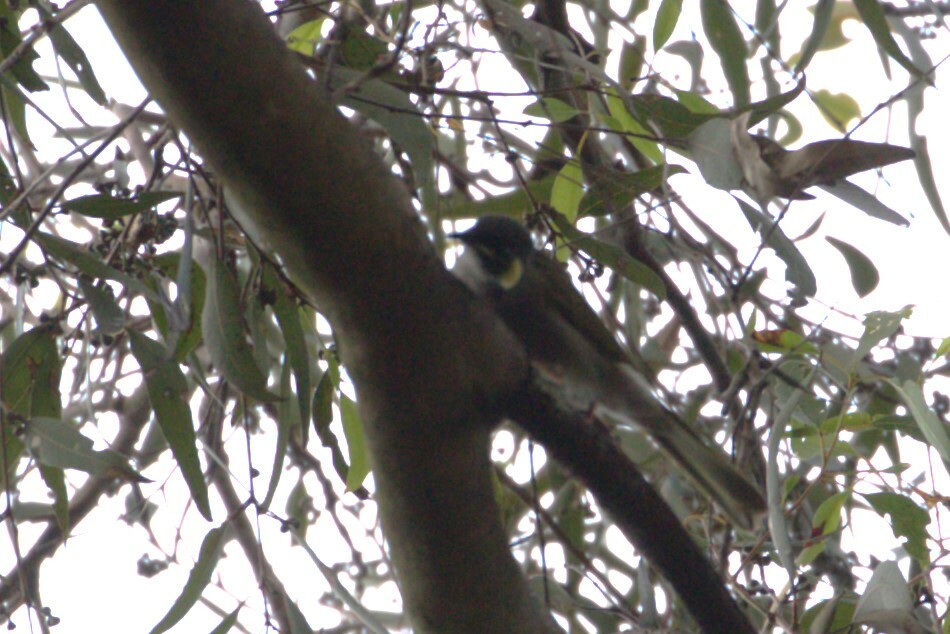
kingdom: Animalia
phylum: Chordata
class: Aves
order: Passeriformes
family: Meliphagidae
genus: Meliphaga
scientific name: Meliphaga lewinii
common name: Lewin's honeyeater
